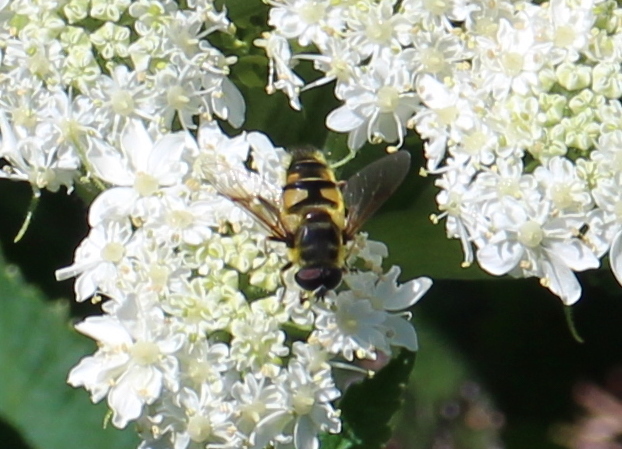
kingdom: Animalia
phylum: Arthropoda
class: Insecta
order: Diptera
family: Syrphidae
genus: Myathropa
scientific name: Myathropa florea
